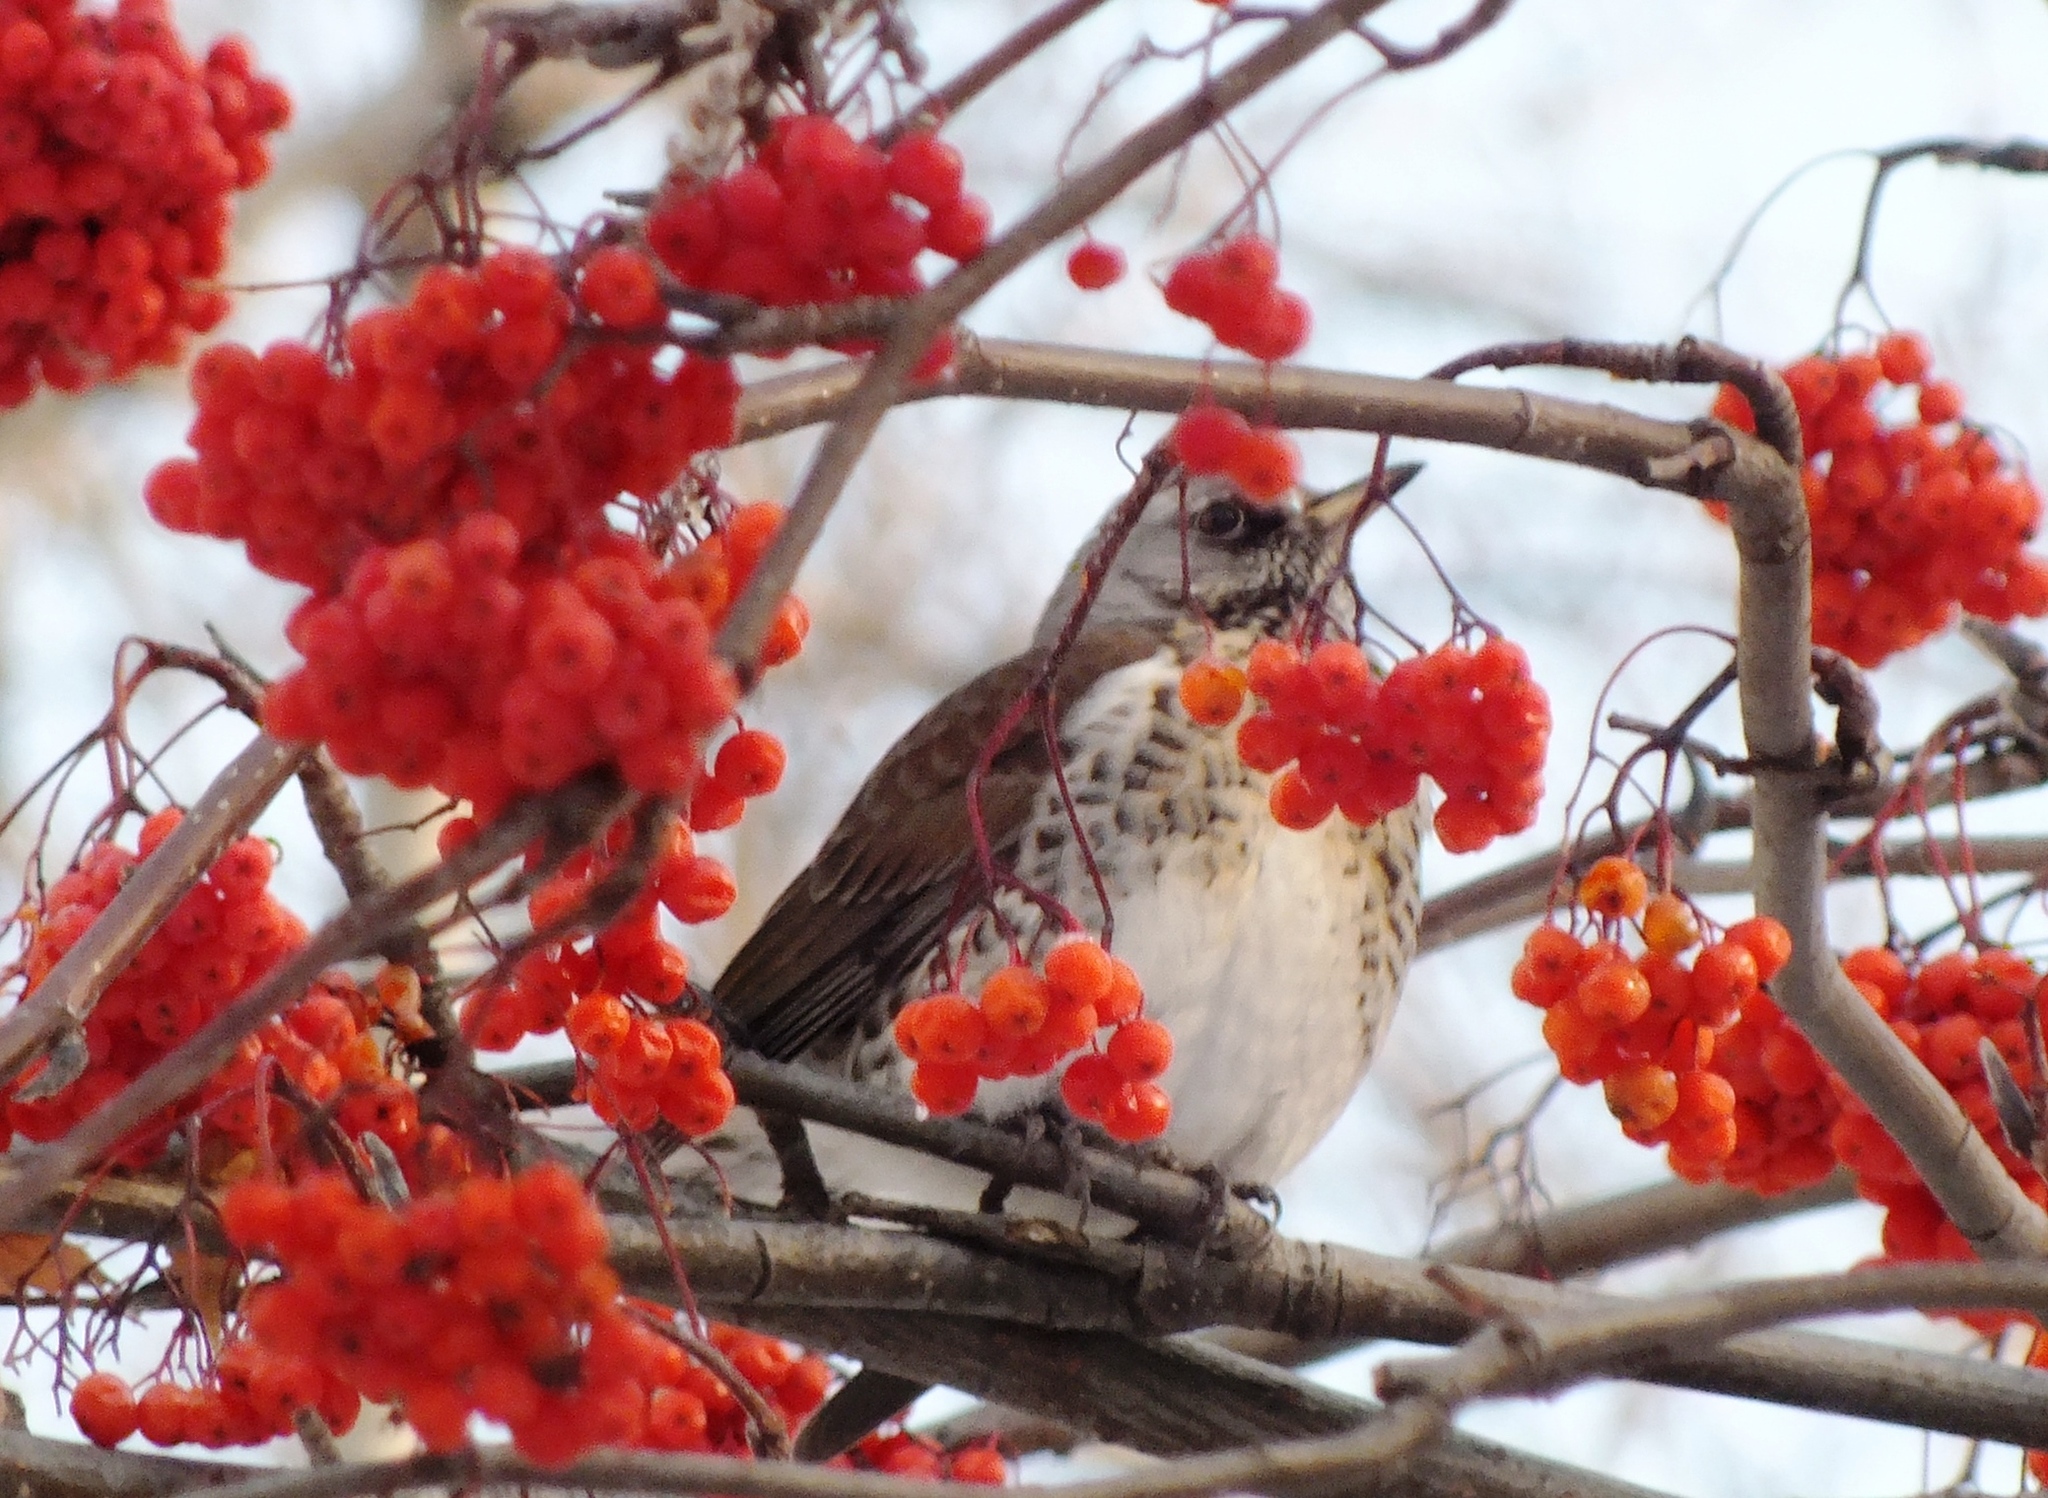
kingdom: Animalia
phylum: Chordata
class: Aves
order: Passeriformes
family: Turdidae
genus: Turdus
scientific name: Turdus pilaris
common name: Fieldfare
